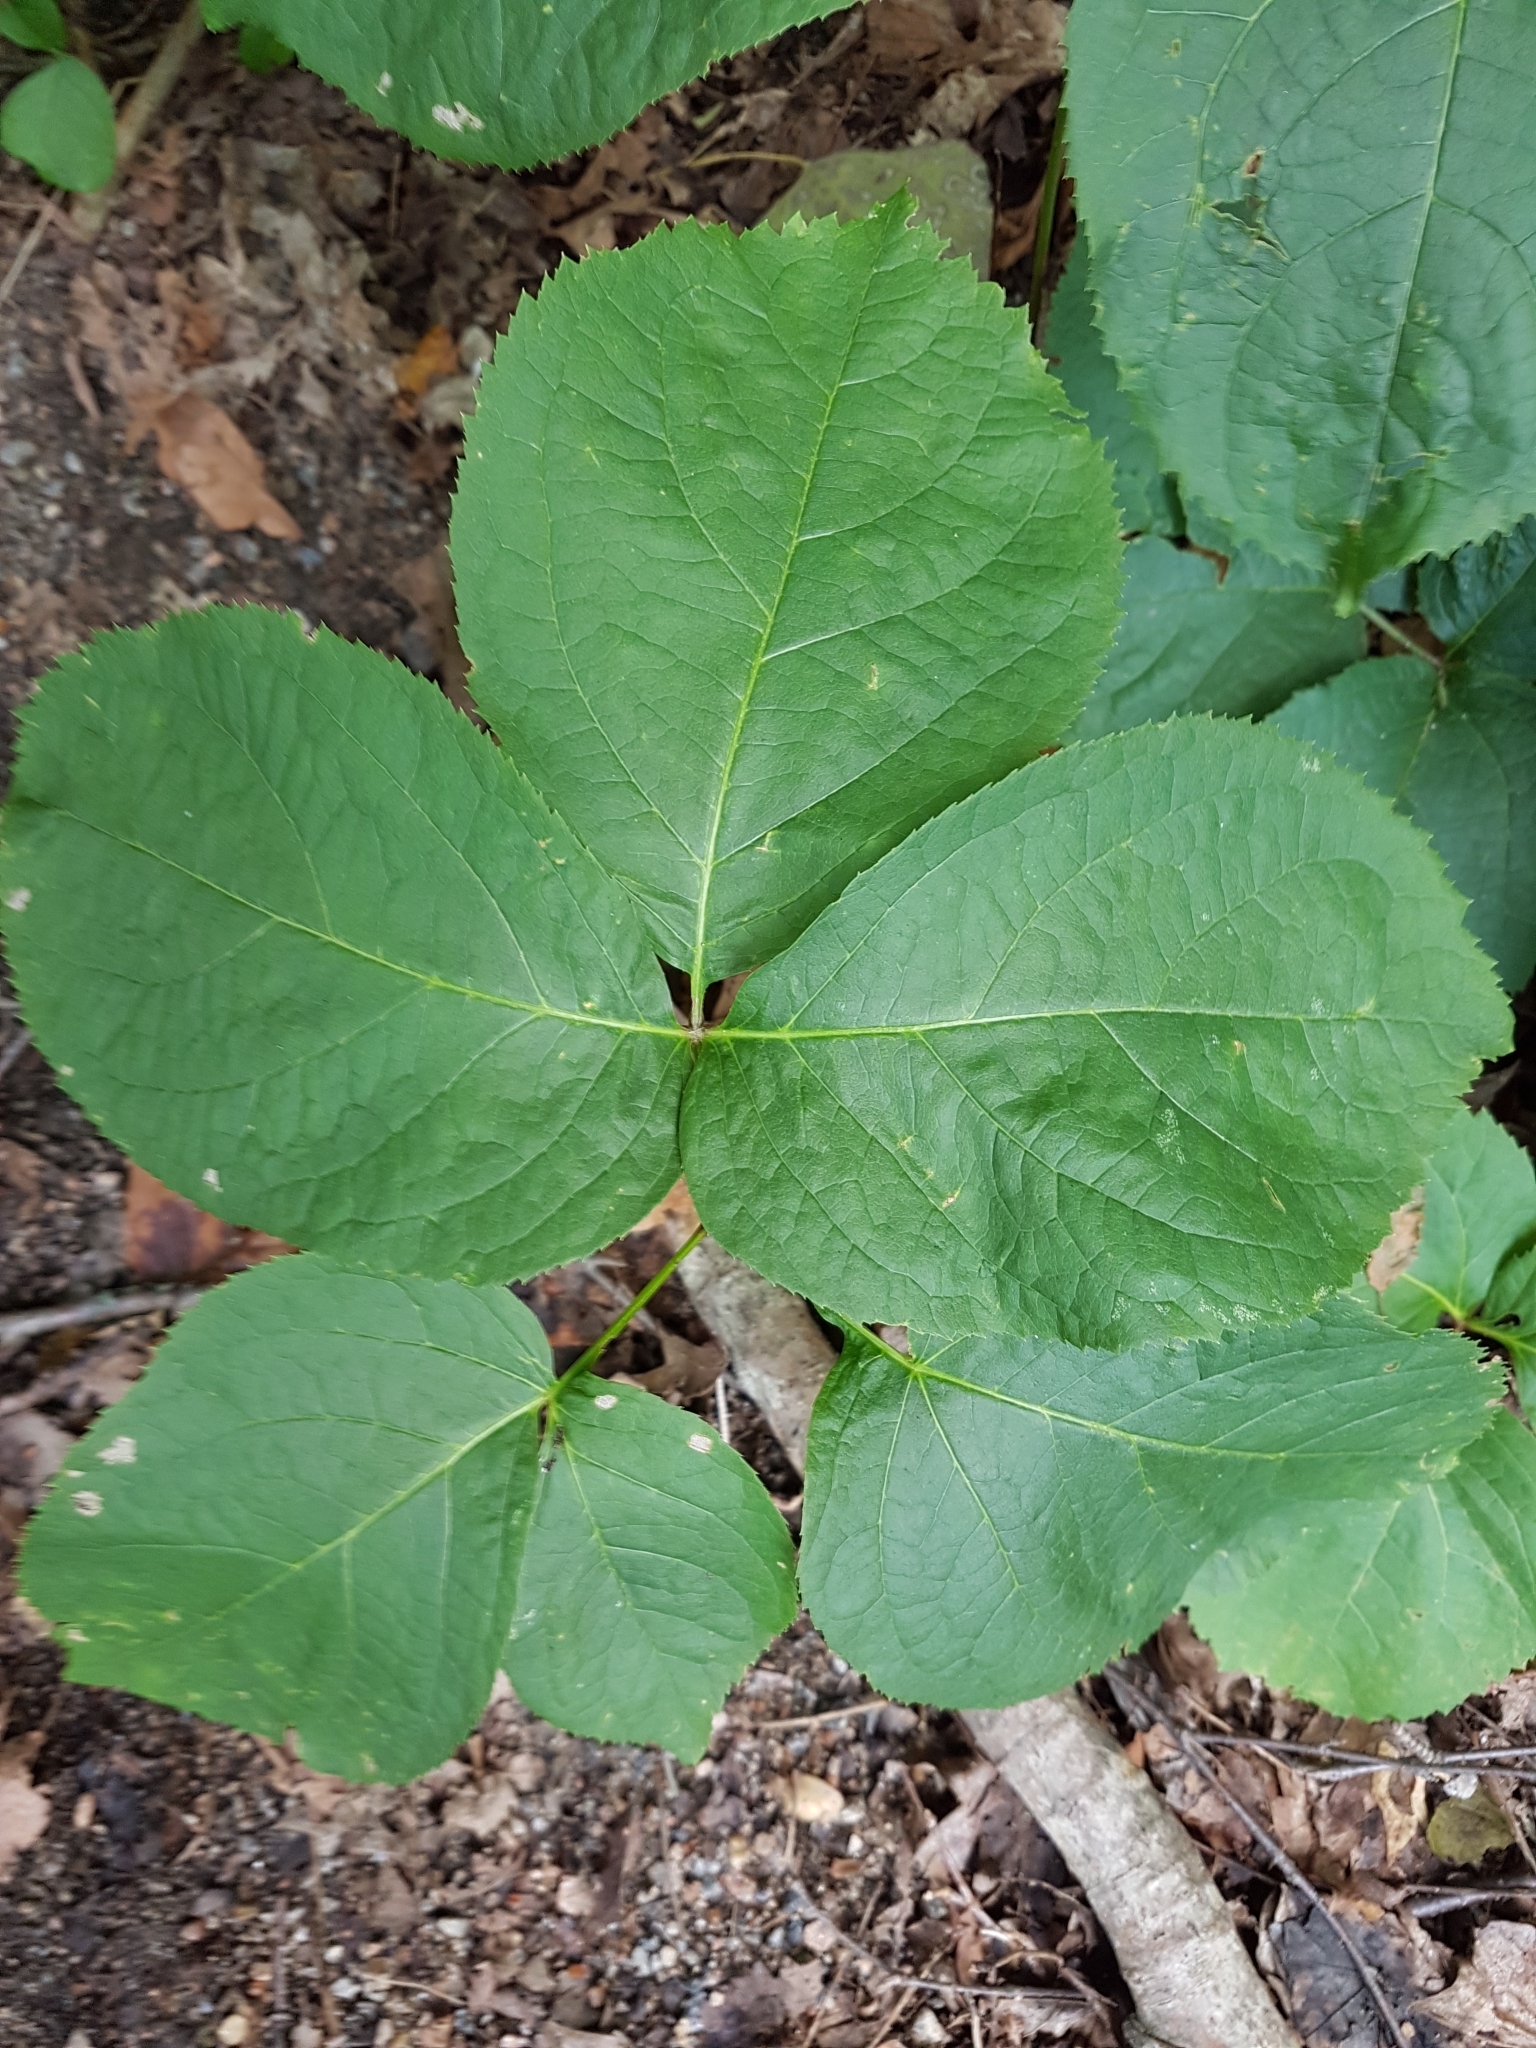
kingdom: Plantae
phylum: Tracheophyta
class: Magnoliopsida
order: Apiales
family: Araliaceae
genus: Aralia
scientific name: Aralia nudicaulis
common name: Wild sarsaparilla
